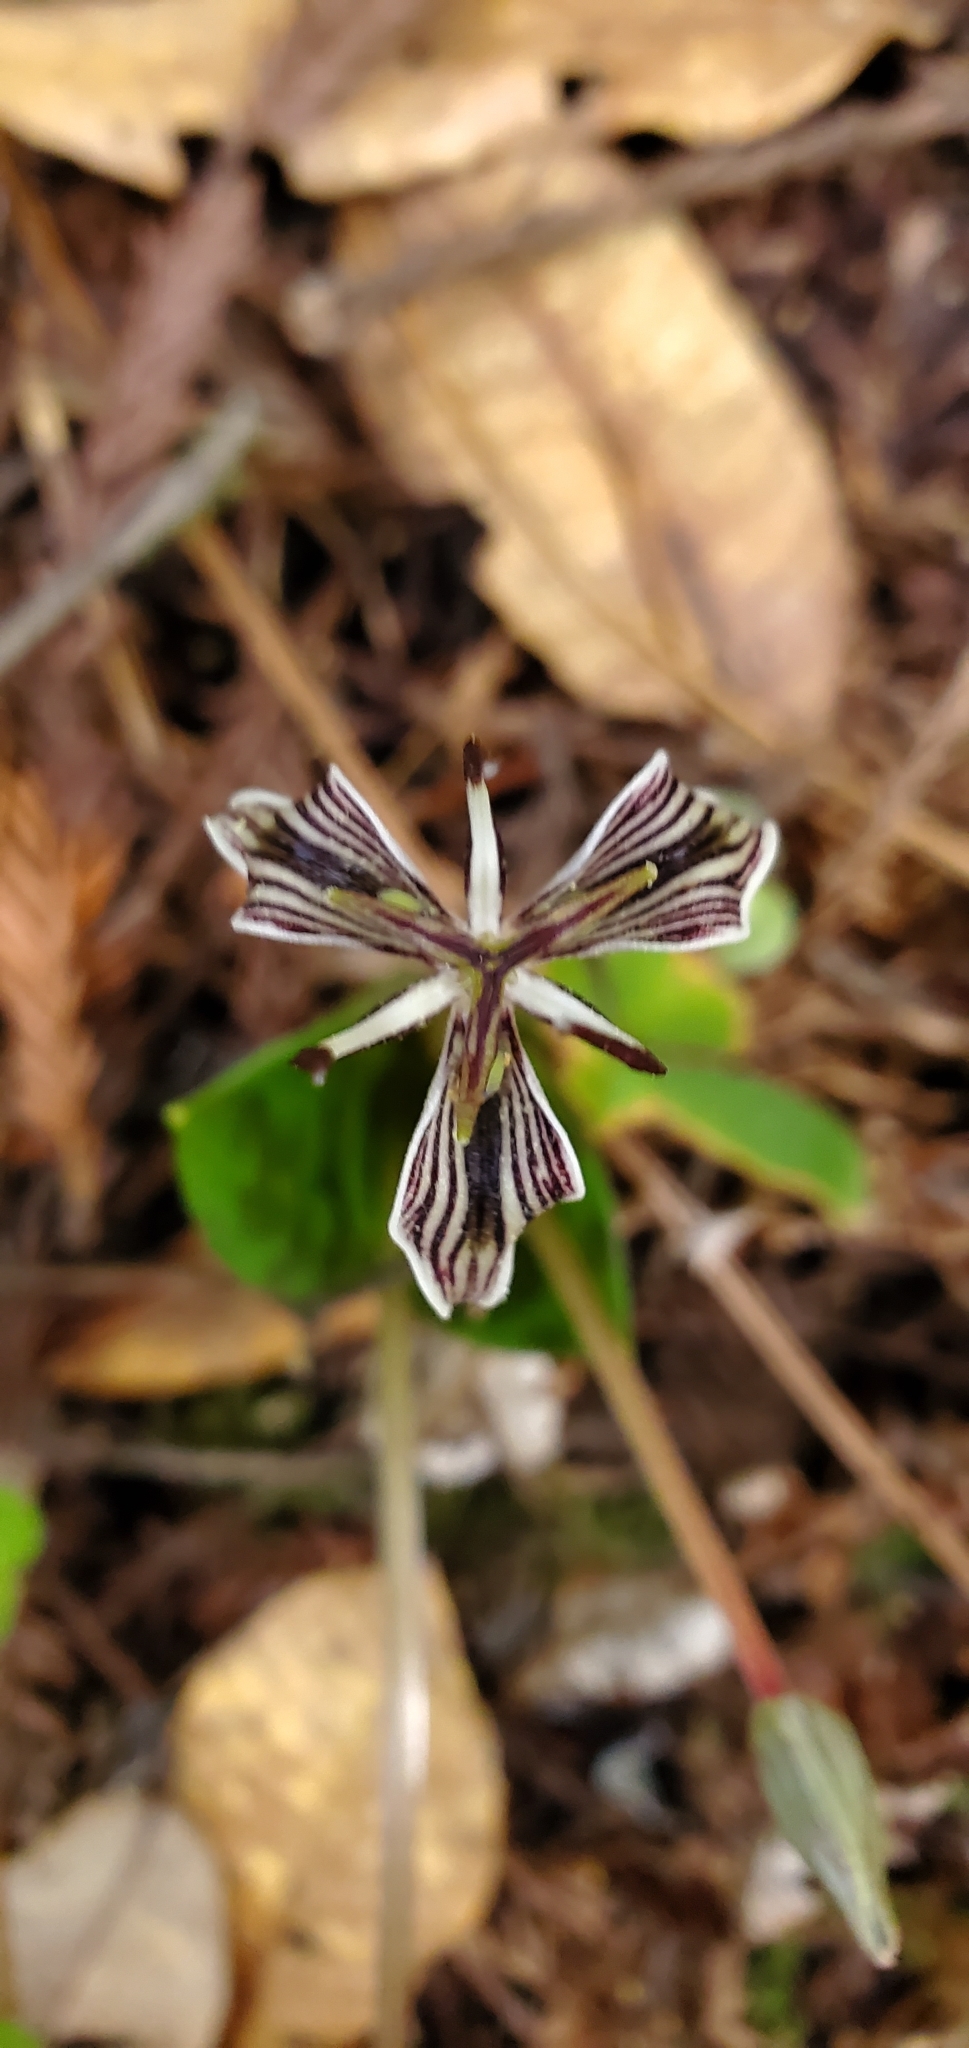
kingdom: Plantae
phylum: Tracheophyta
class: Liliopsida
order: Liliales
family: Liliaceae
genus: Scoliopus
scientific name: Scoliopus bigelovii
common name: Foetid adder's-tongue
